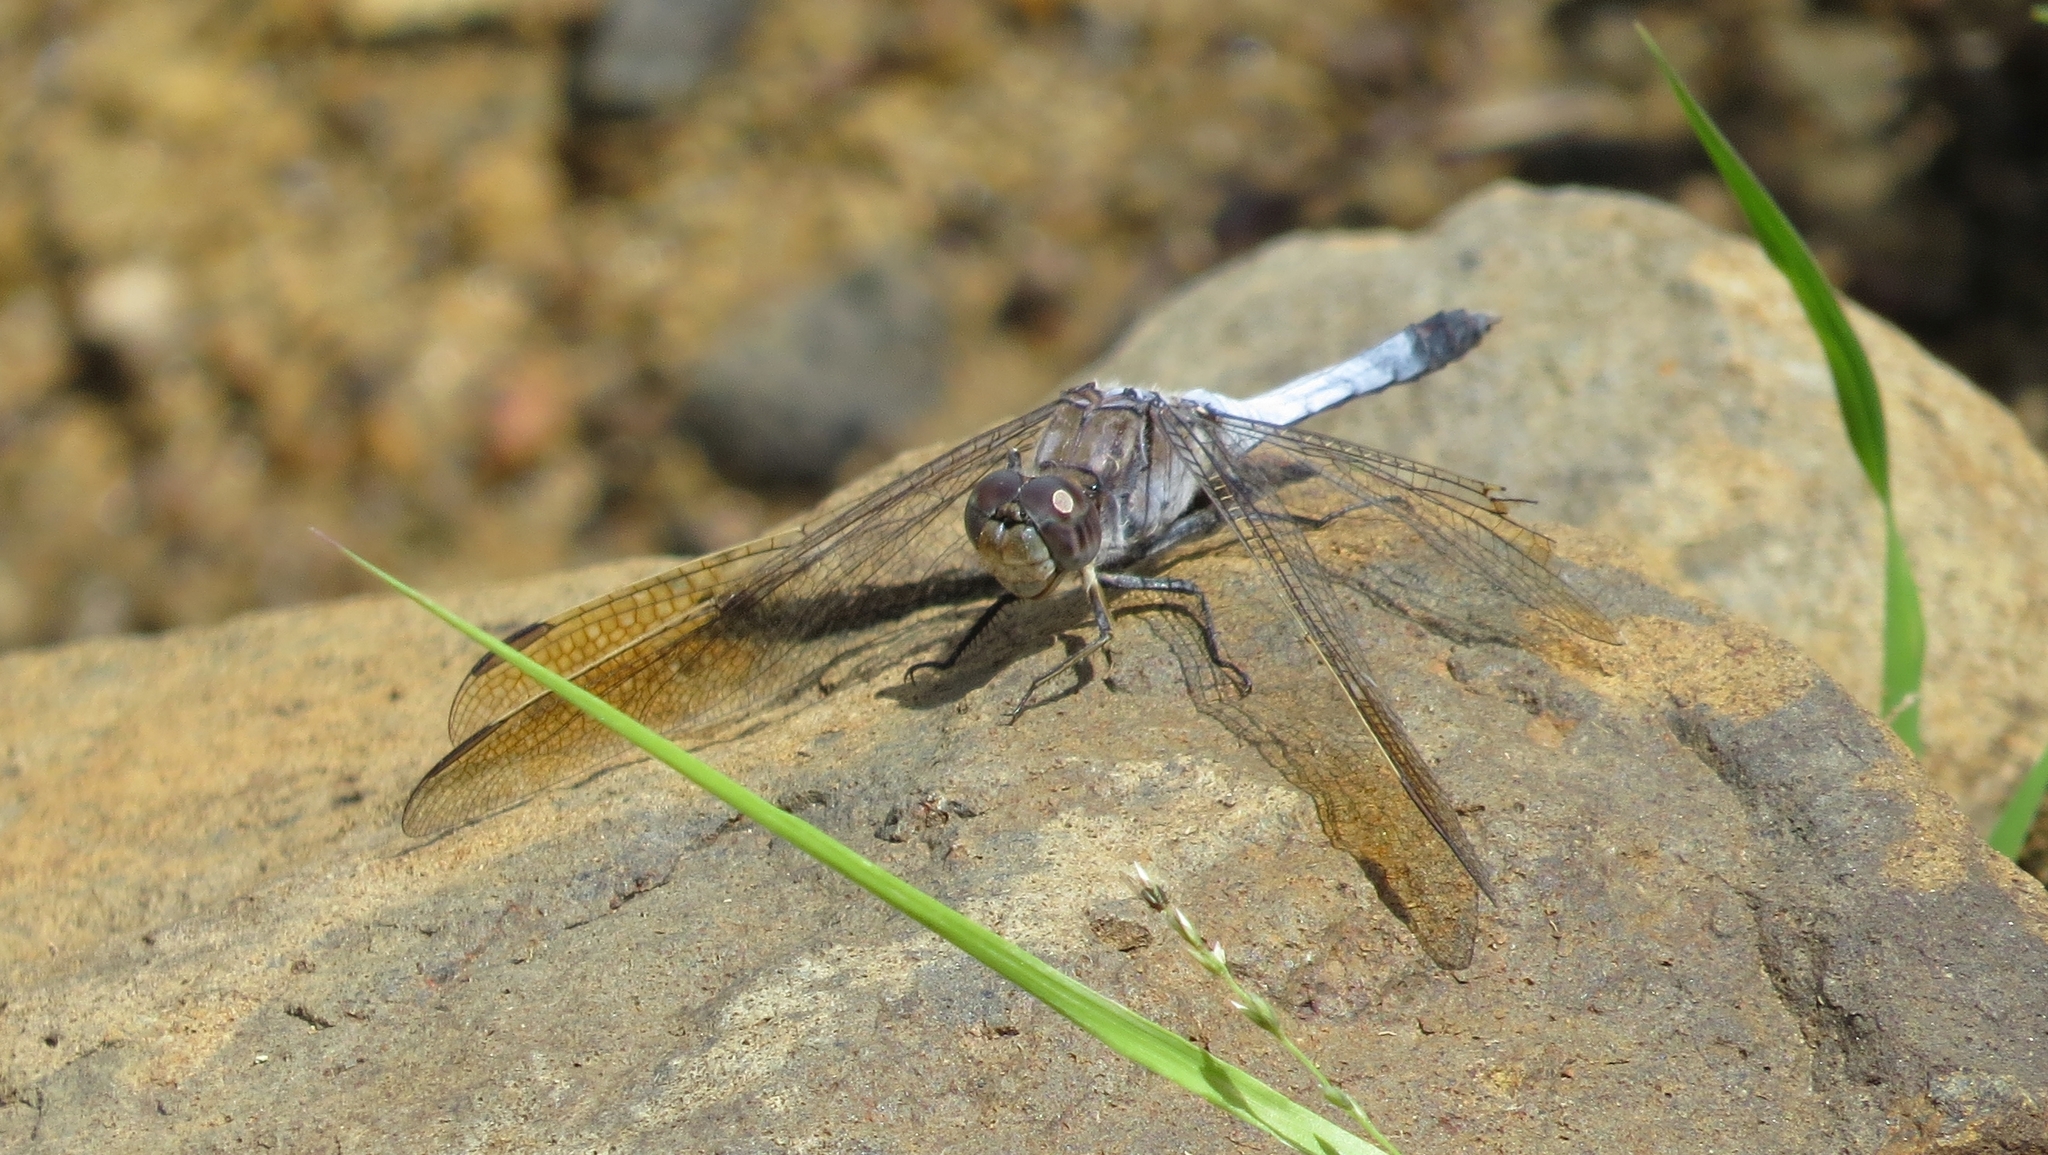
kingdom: Animalia
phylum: Arthropoda
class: Insecta
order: Odonata
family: Libellulidae
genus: Orthetrum
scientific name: Orthetrum caledonicum
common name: Blue skimmer
